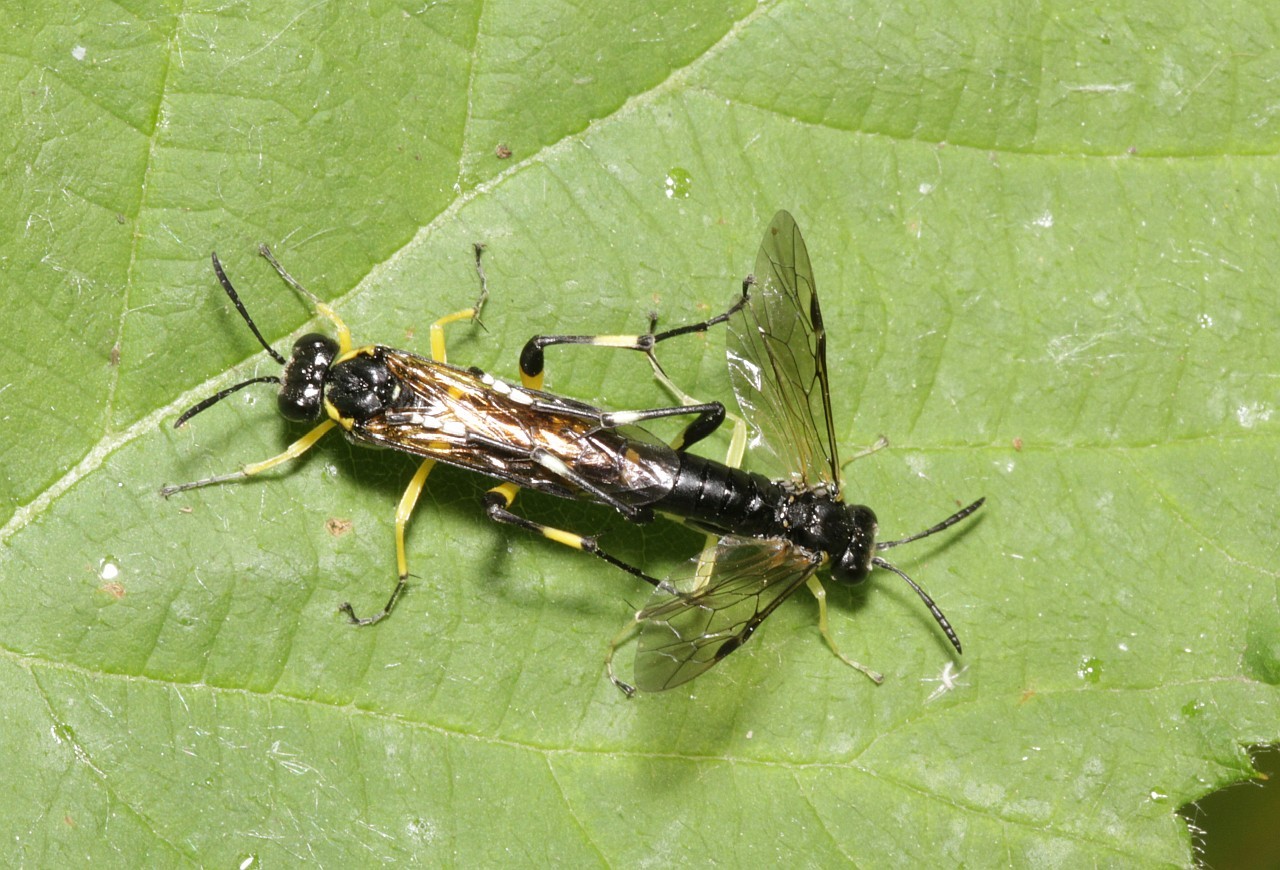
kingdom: Animalia
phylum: Arthropoda
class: Insecta
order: Hymenoptera
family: Tenthredinidae
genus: Macrophya
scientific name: Macrophya montana
